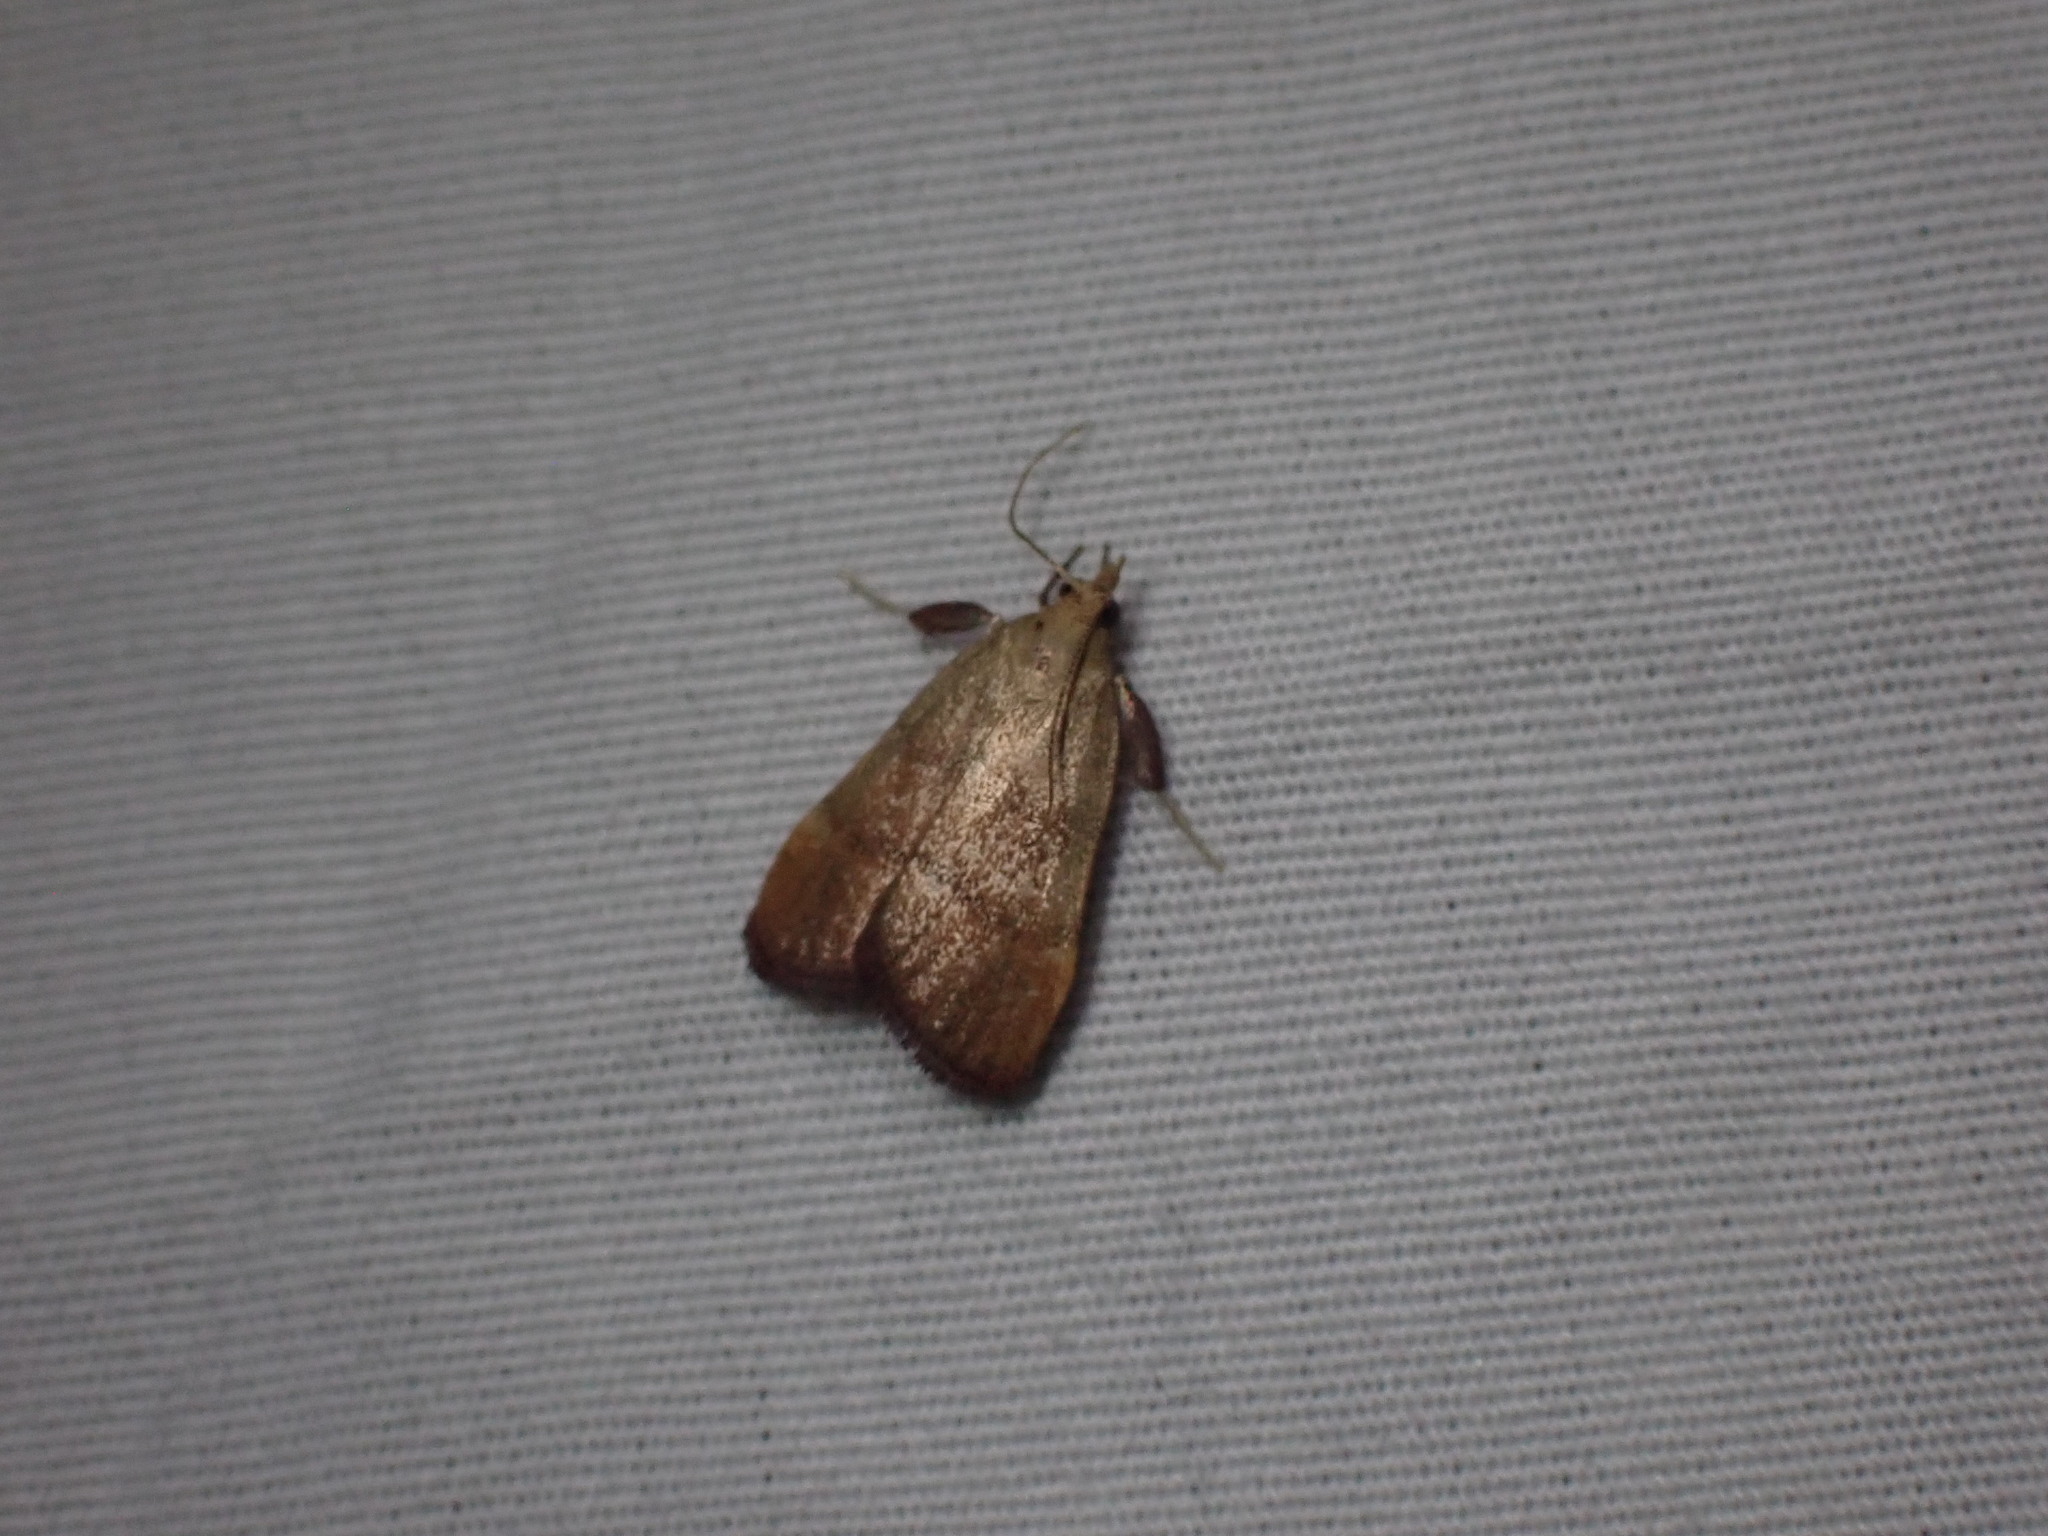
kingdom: Animalia
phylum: Arthropoda
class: Insecta
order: Lepidoptera
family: Pyralidae
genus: Condylolomia
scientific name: Condylolomia participialis
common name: Drab condylolomia moth
